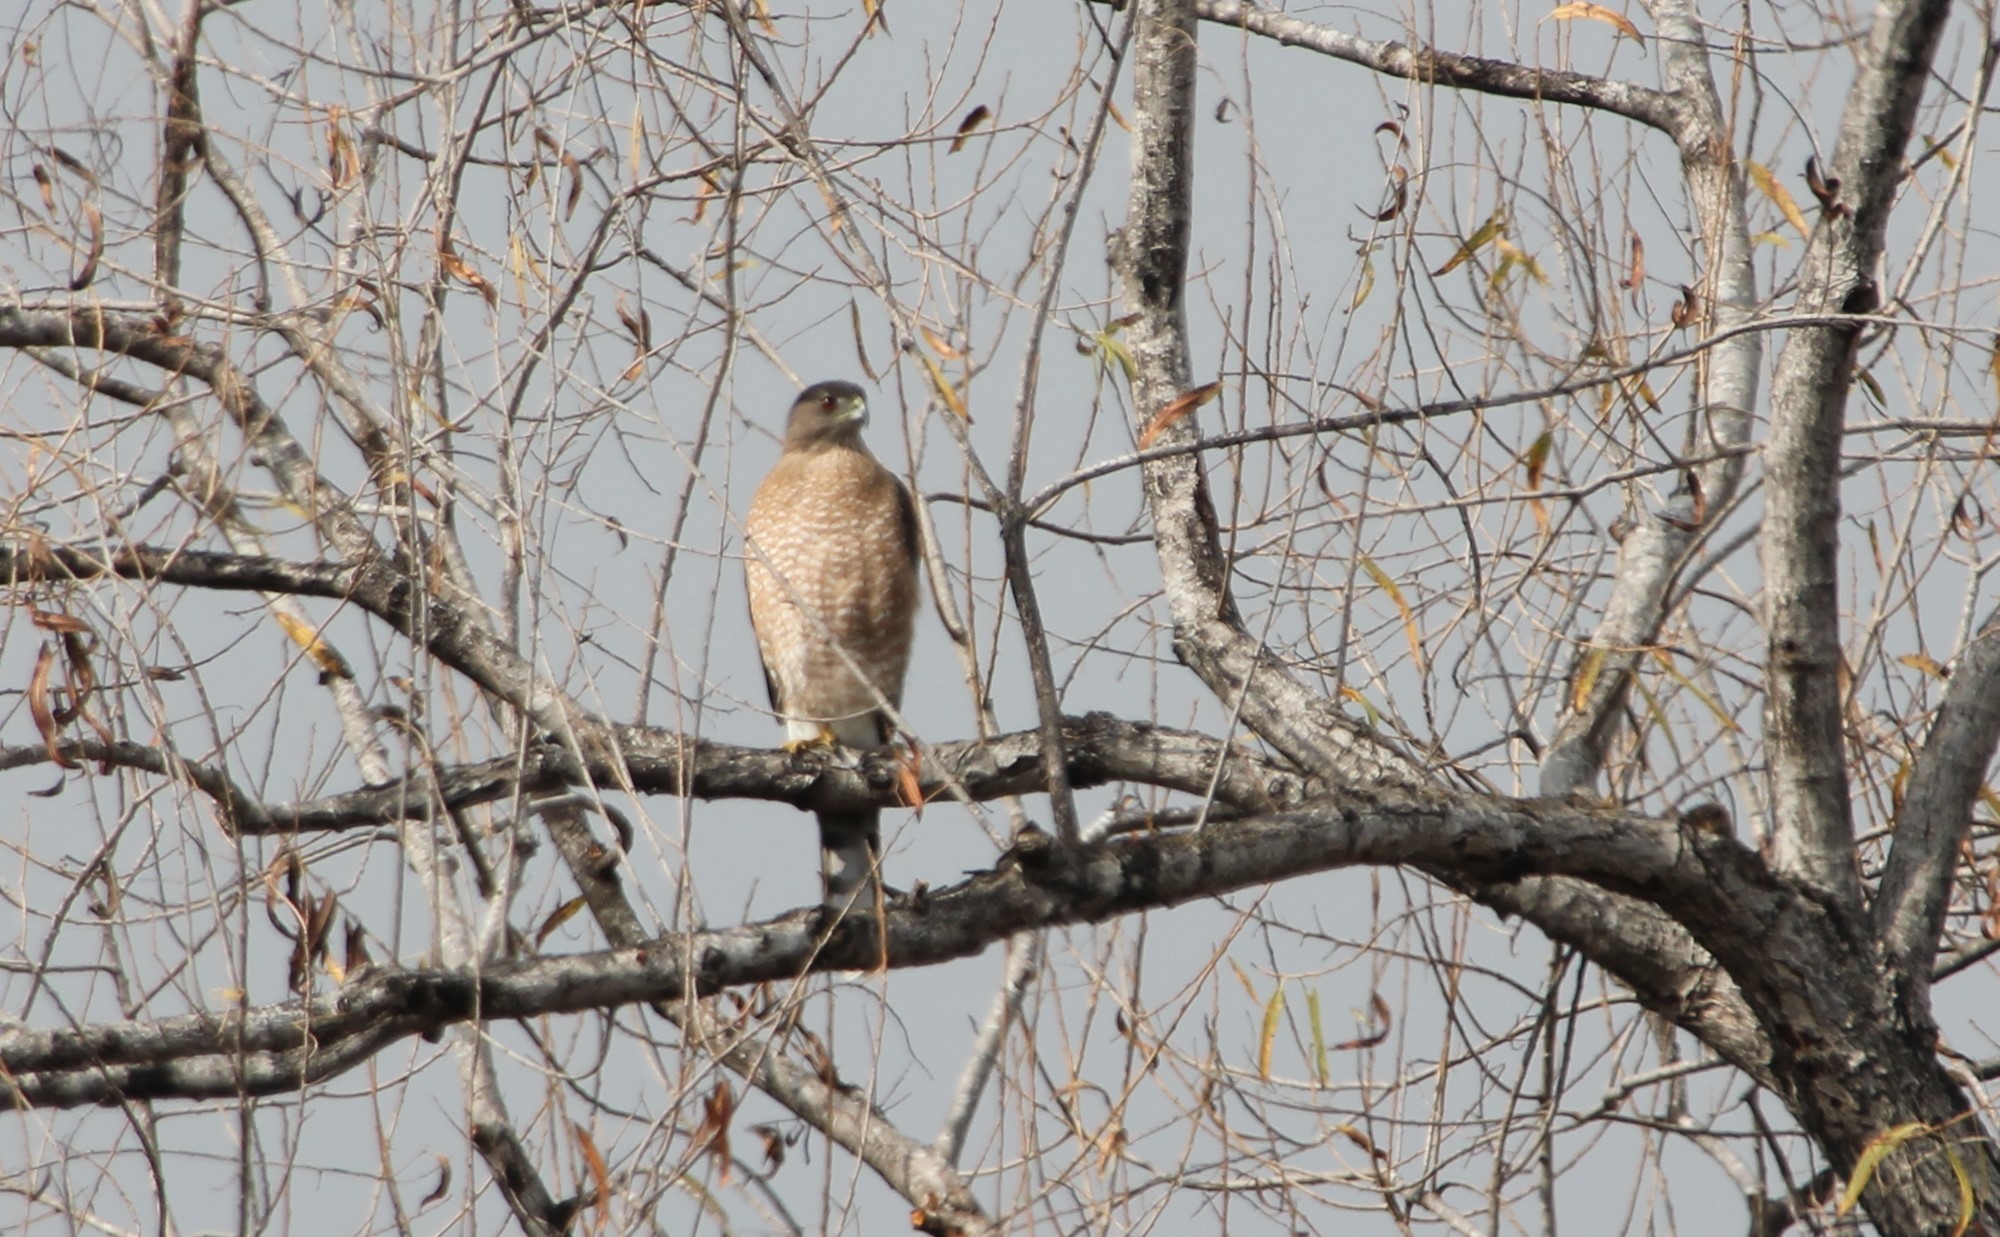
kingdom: Animalia
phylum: Chordata
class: Aves
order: Accipitriformes
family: Accipitridae
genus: Accipiter
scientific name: Accipiter cooperii
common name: Cooper's hawk
